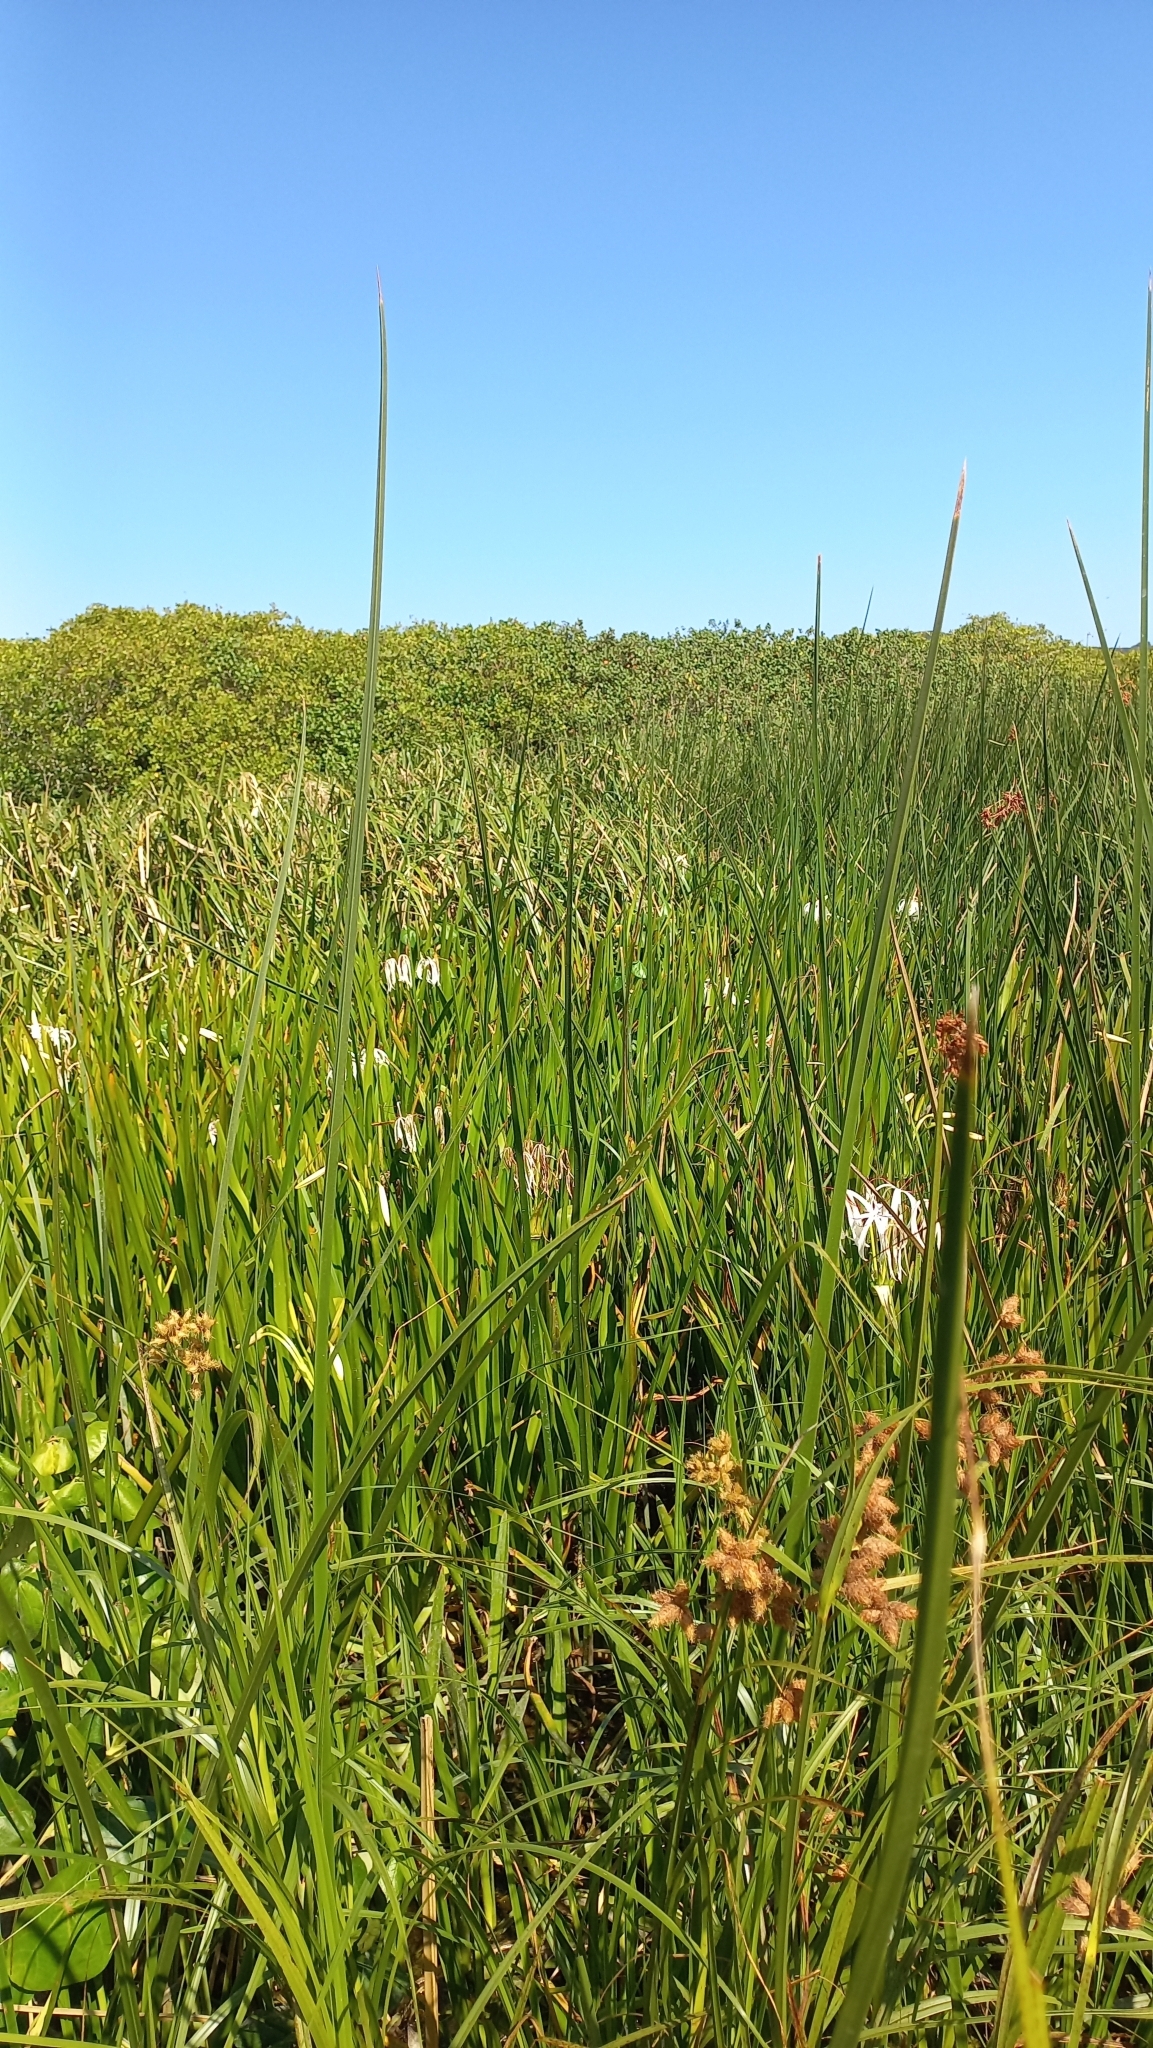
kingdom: Plantae
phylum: Tracheophyta
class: Liliopsida
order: Asparagales
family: Amaryllidaceae
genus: Crinum
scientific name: Crinum americanum
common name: Florida swamp-lily
